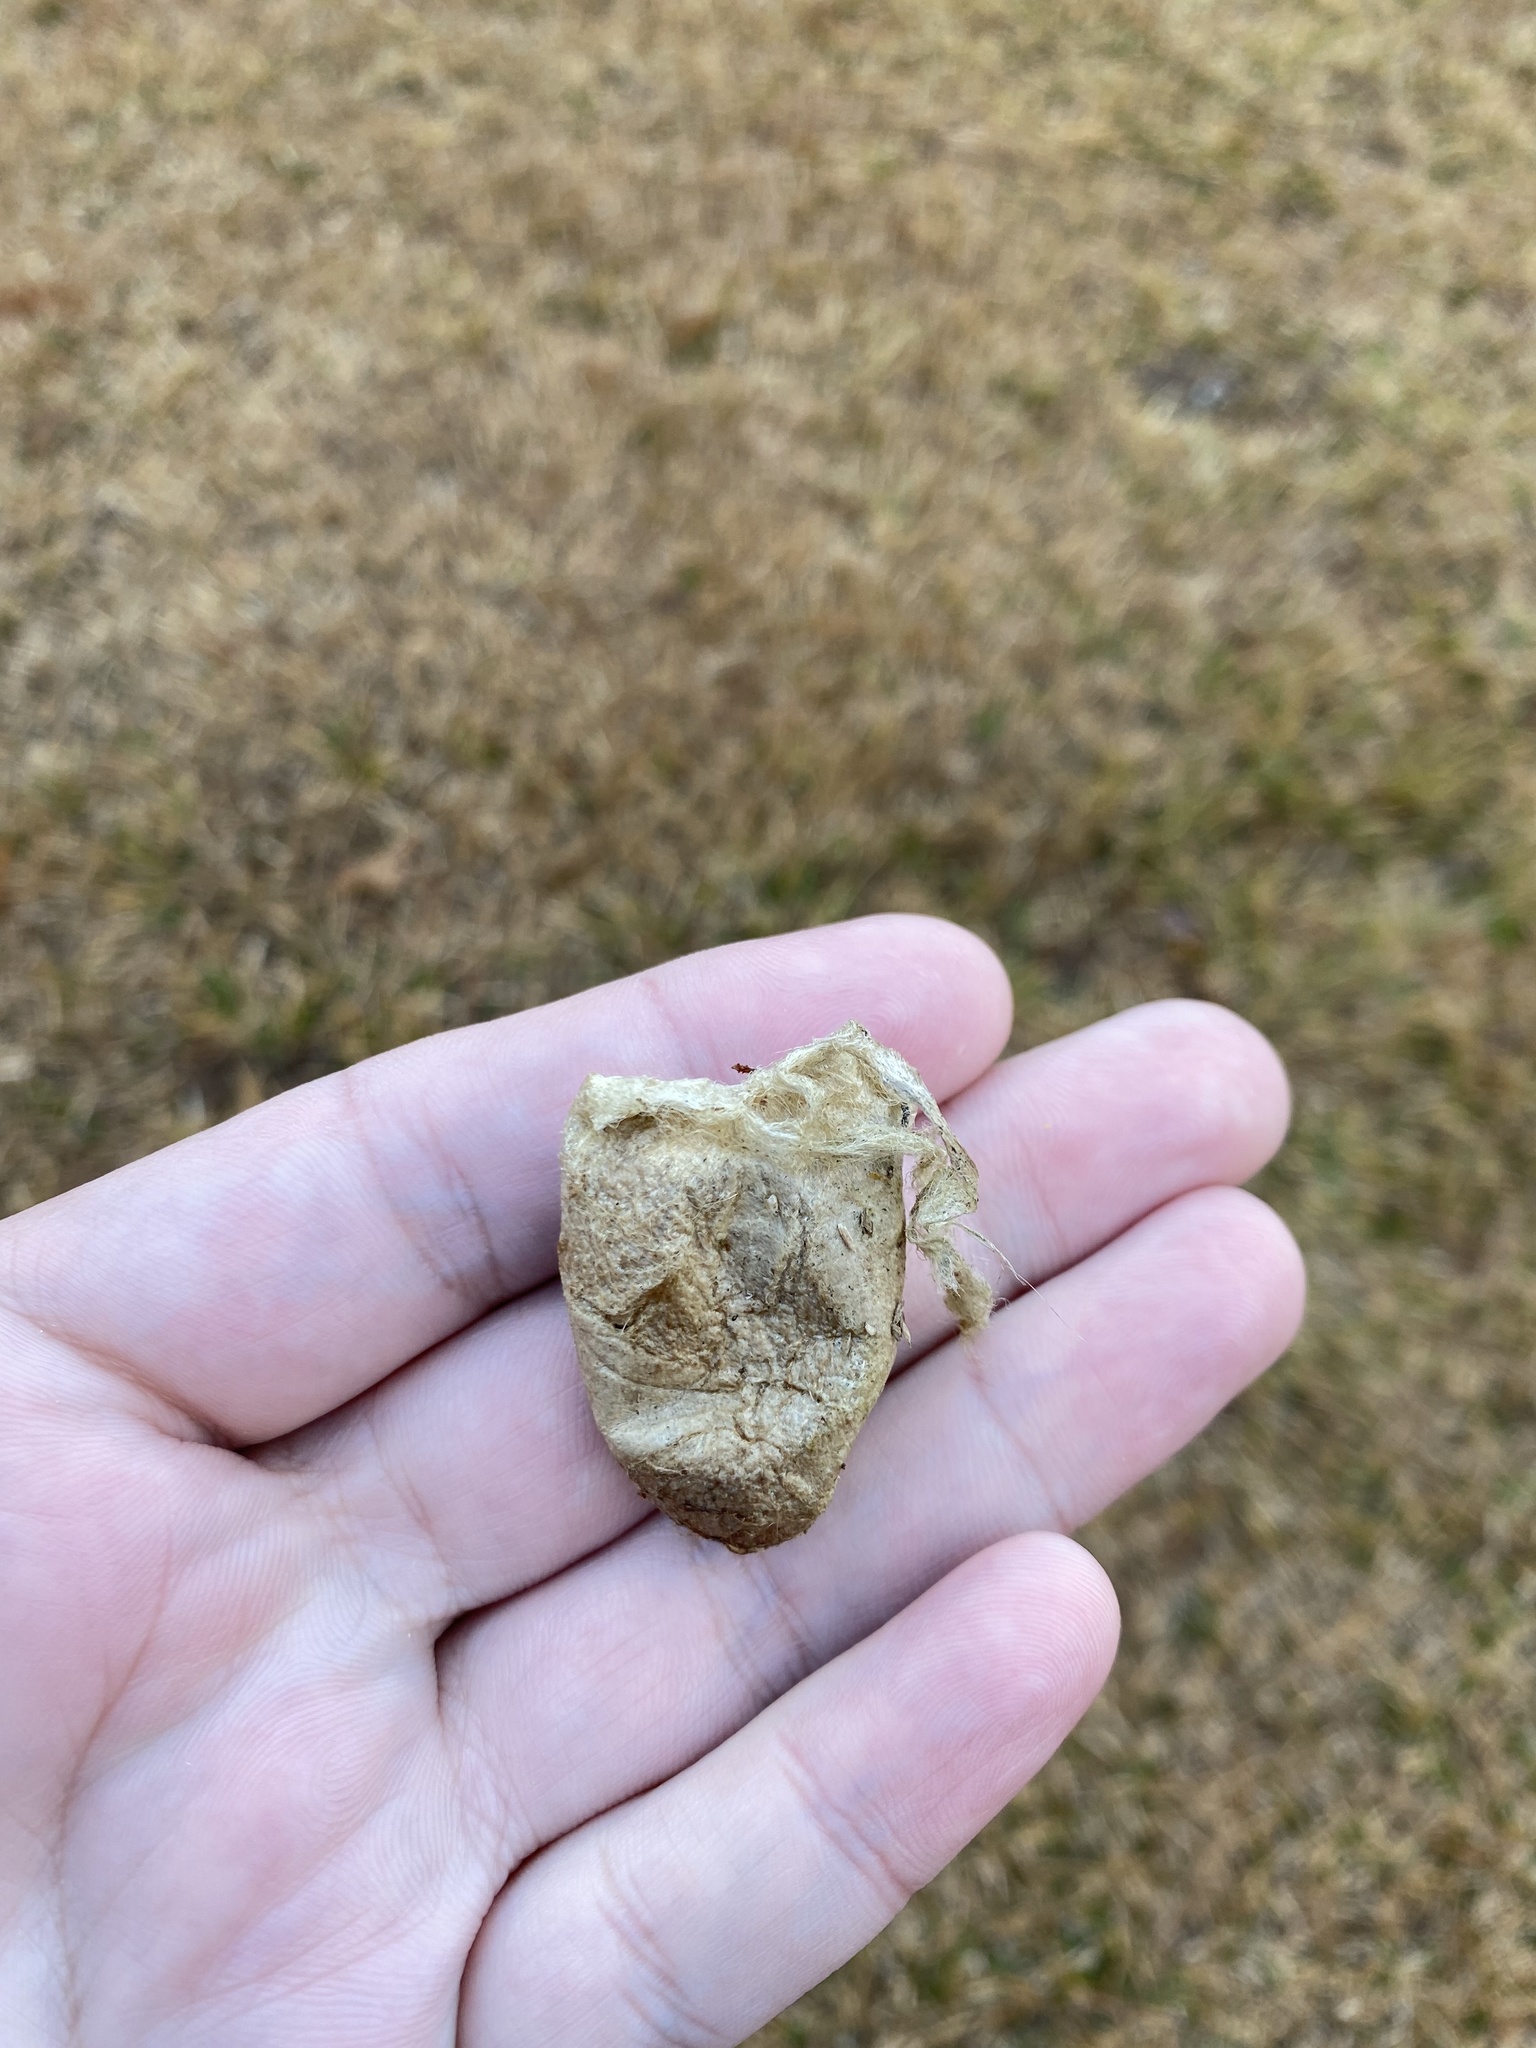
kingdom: Animalia
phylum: Arthropoda
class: Insecta
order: Lepidoptera
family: Saturniidae
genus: Antheraea
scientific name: Antheraea polyphemus
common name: Polyphemus moth
